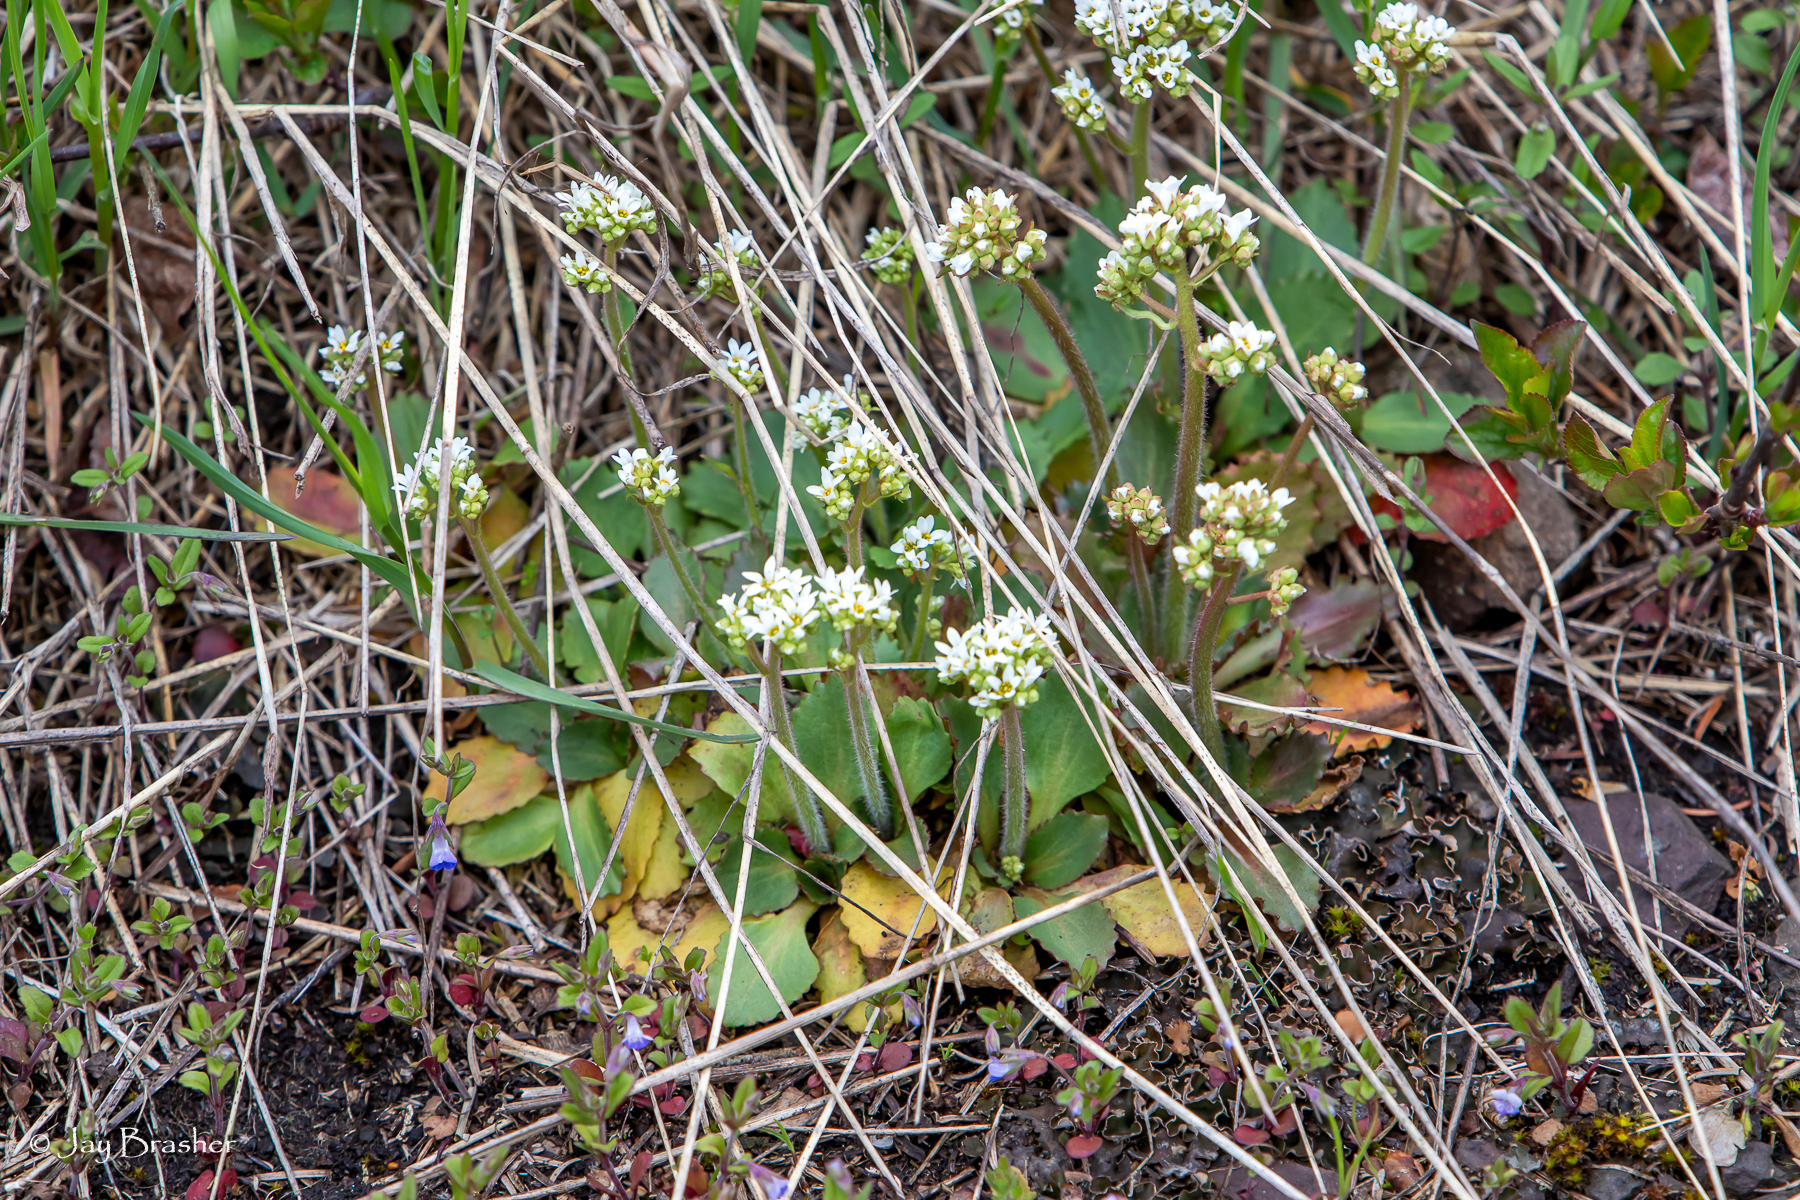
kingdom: Plantae
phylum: Tracheophyta
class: Magnoliopsida
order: Saxifragales
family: Saxifragaceae
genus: Micranthes
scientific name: Micranthes virginiensis
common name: Early saxifrage
